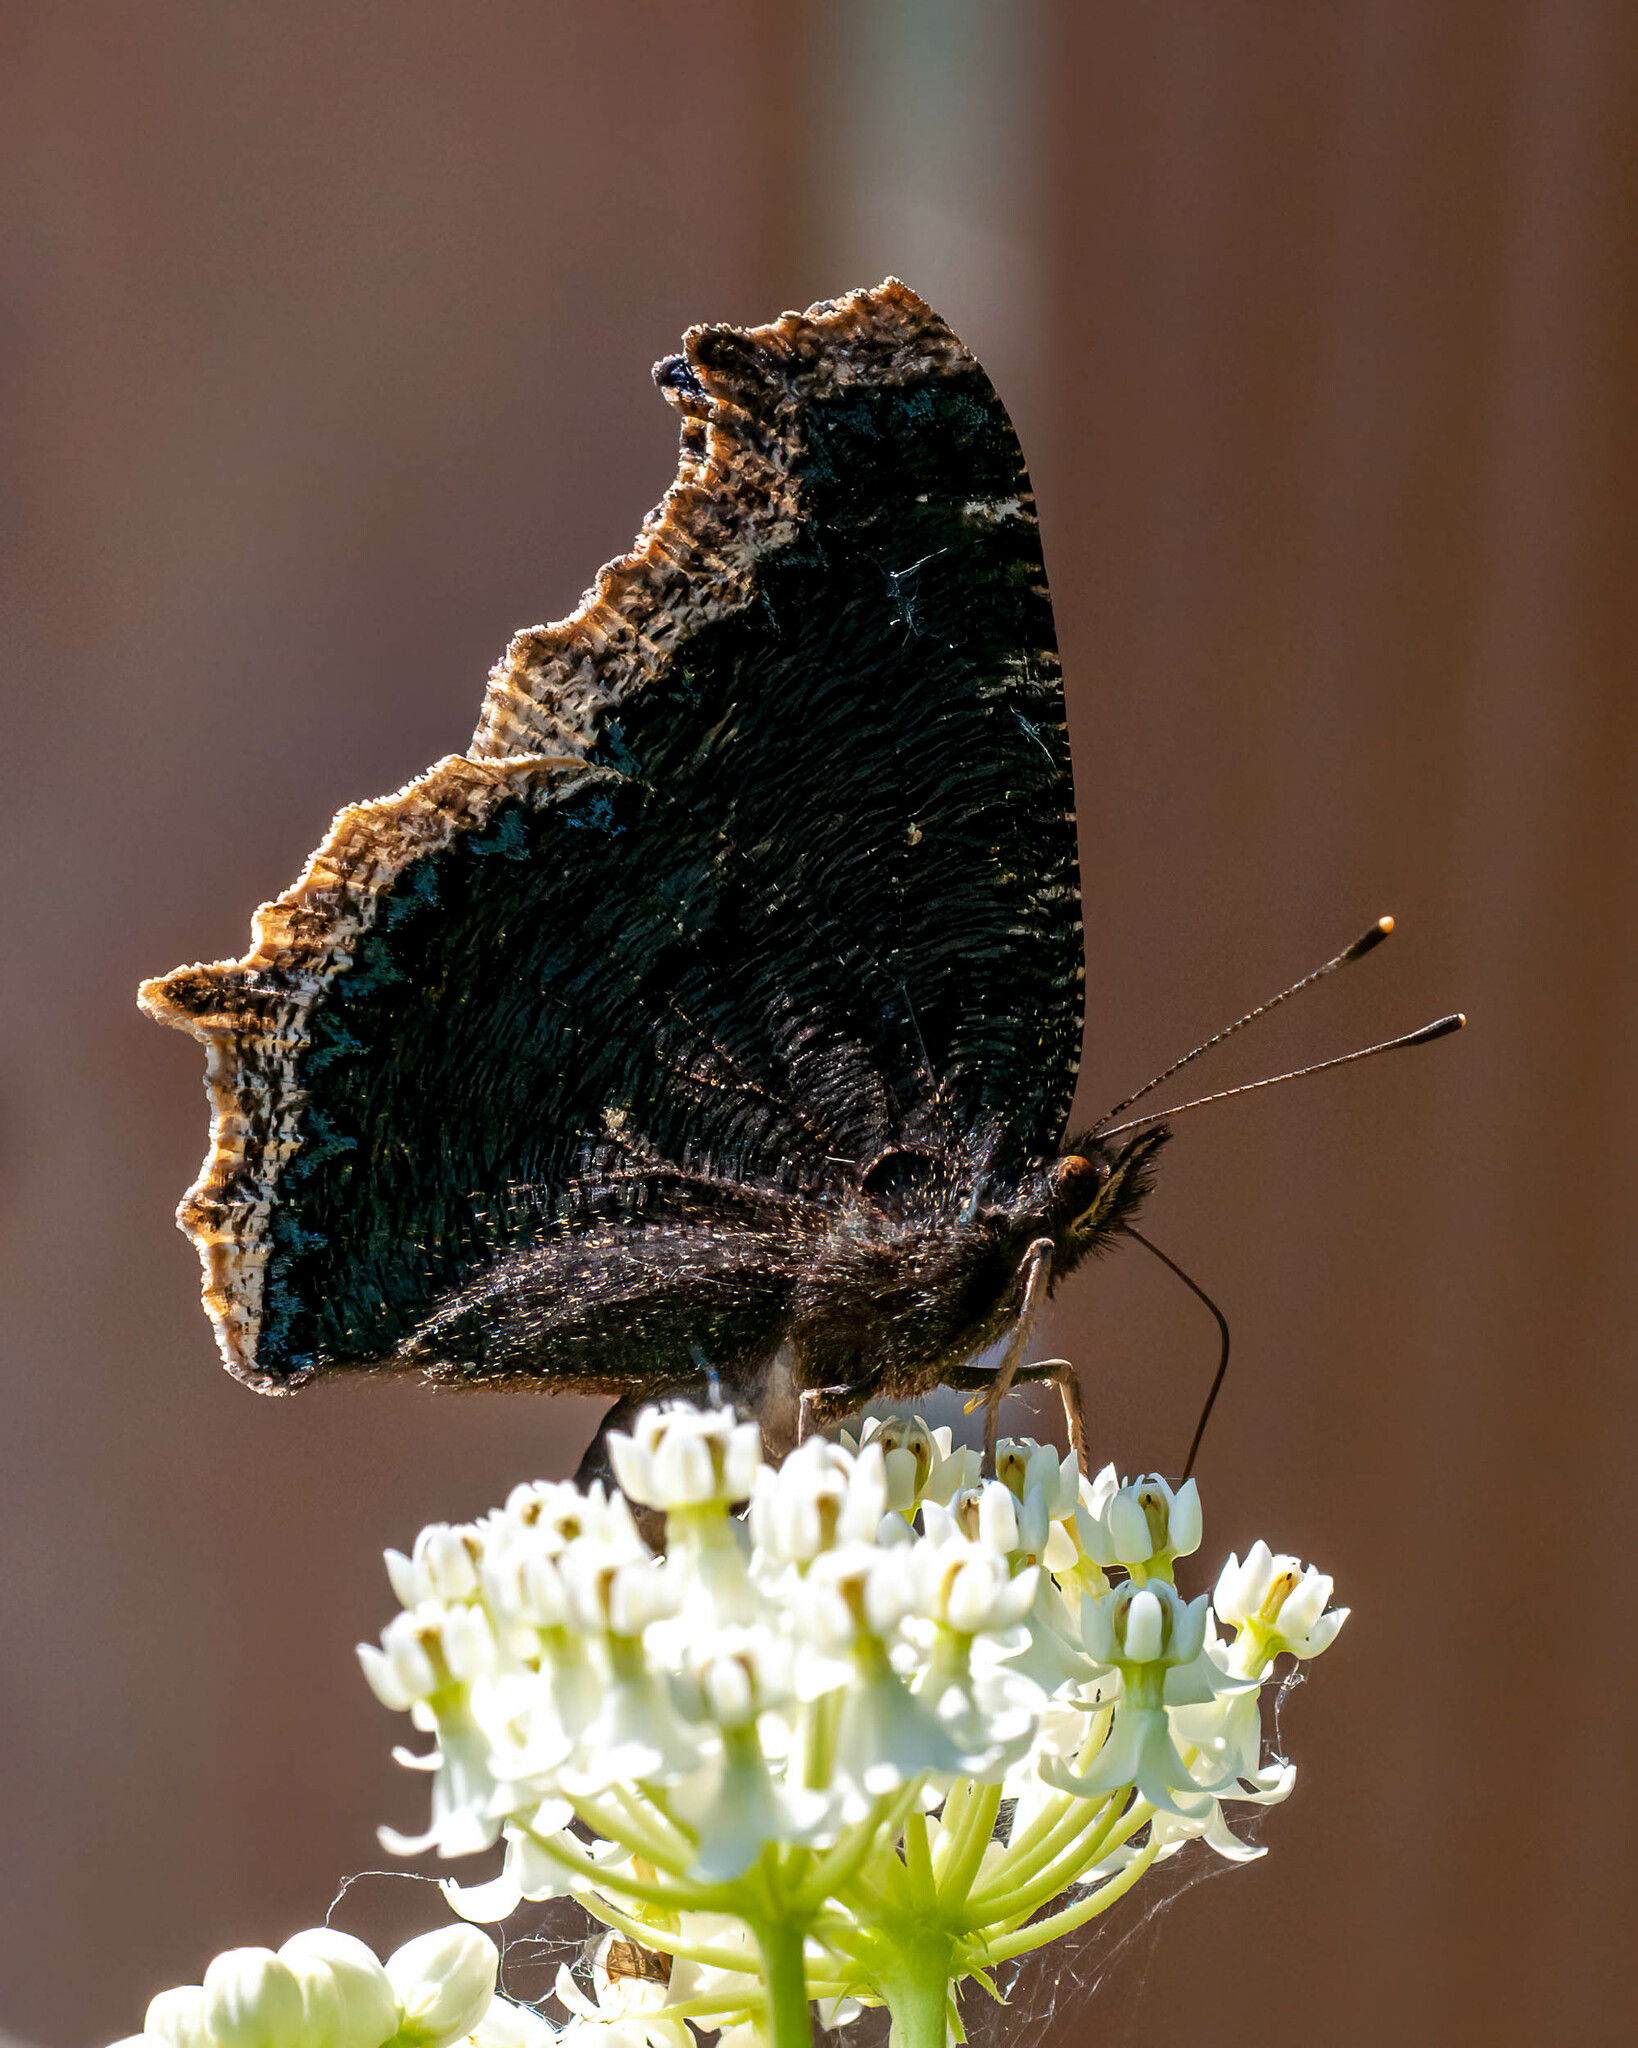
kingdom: Animalia
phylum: Arthropoda
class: Insecta
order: Lepidoptera
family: Nymphalidae
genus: Nymphalis
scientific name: Nymphalis antiopa
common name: Camberwell beauty
